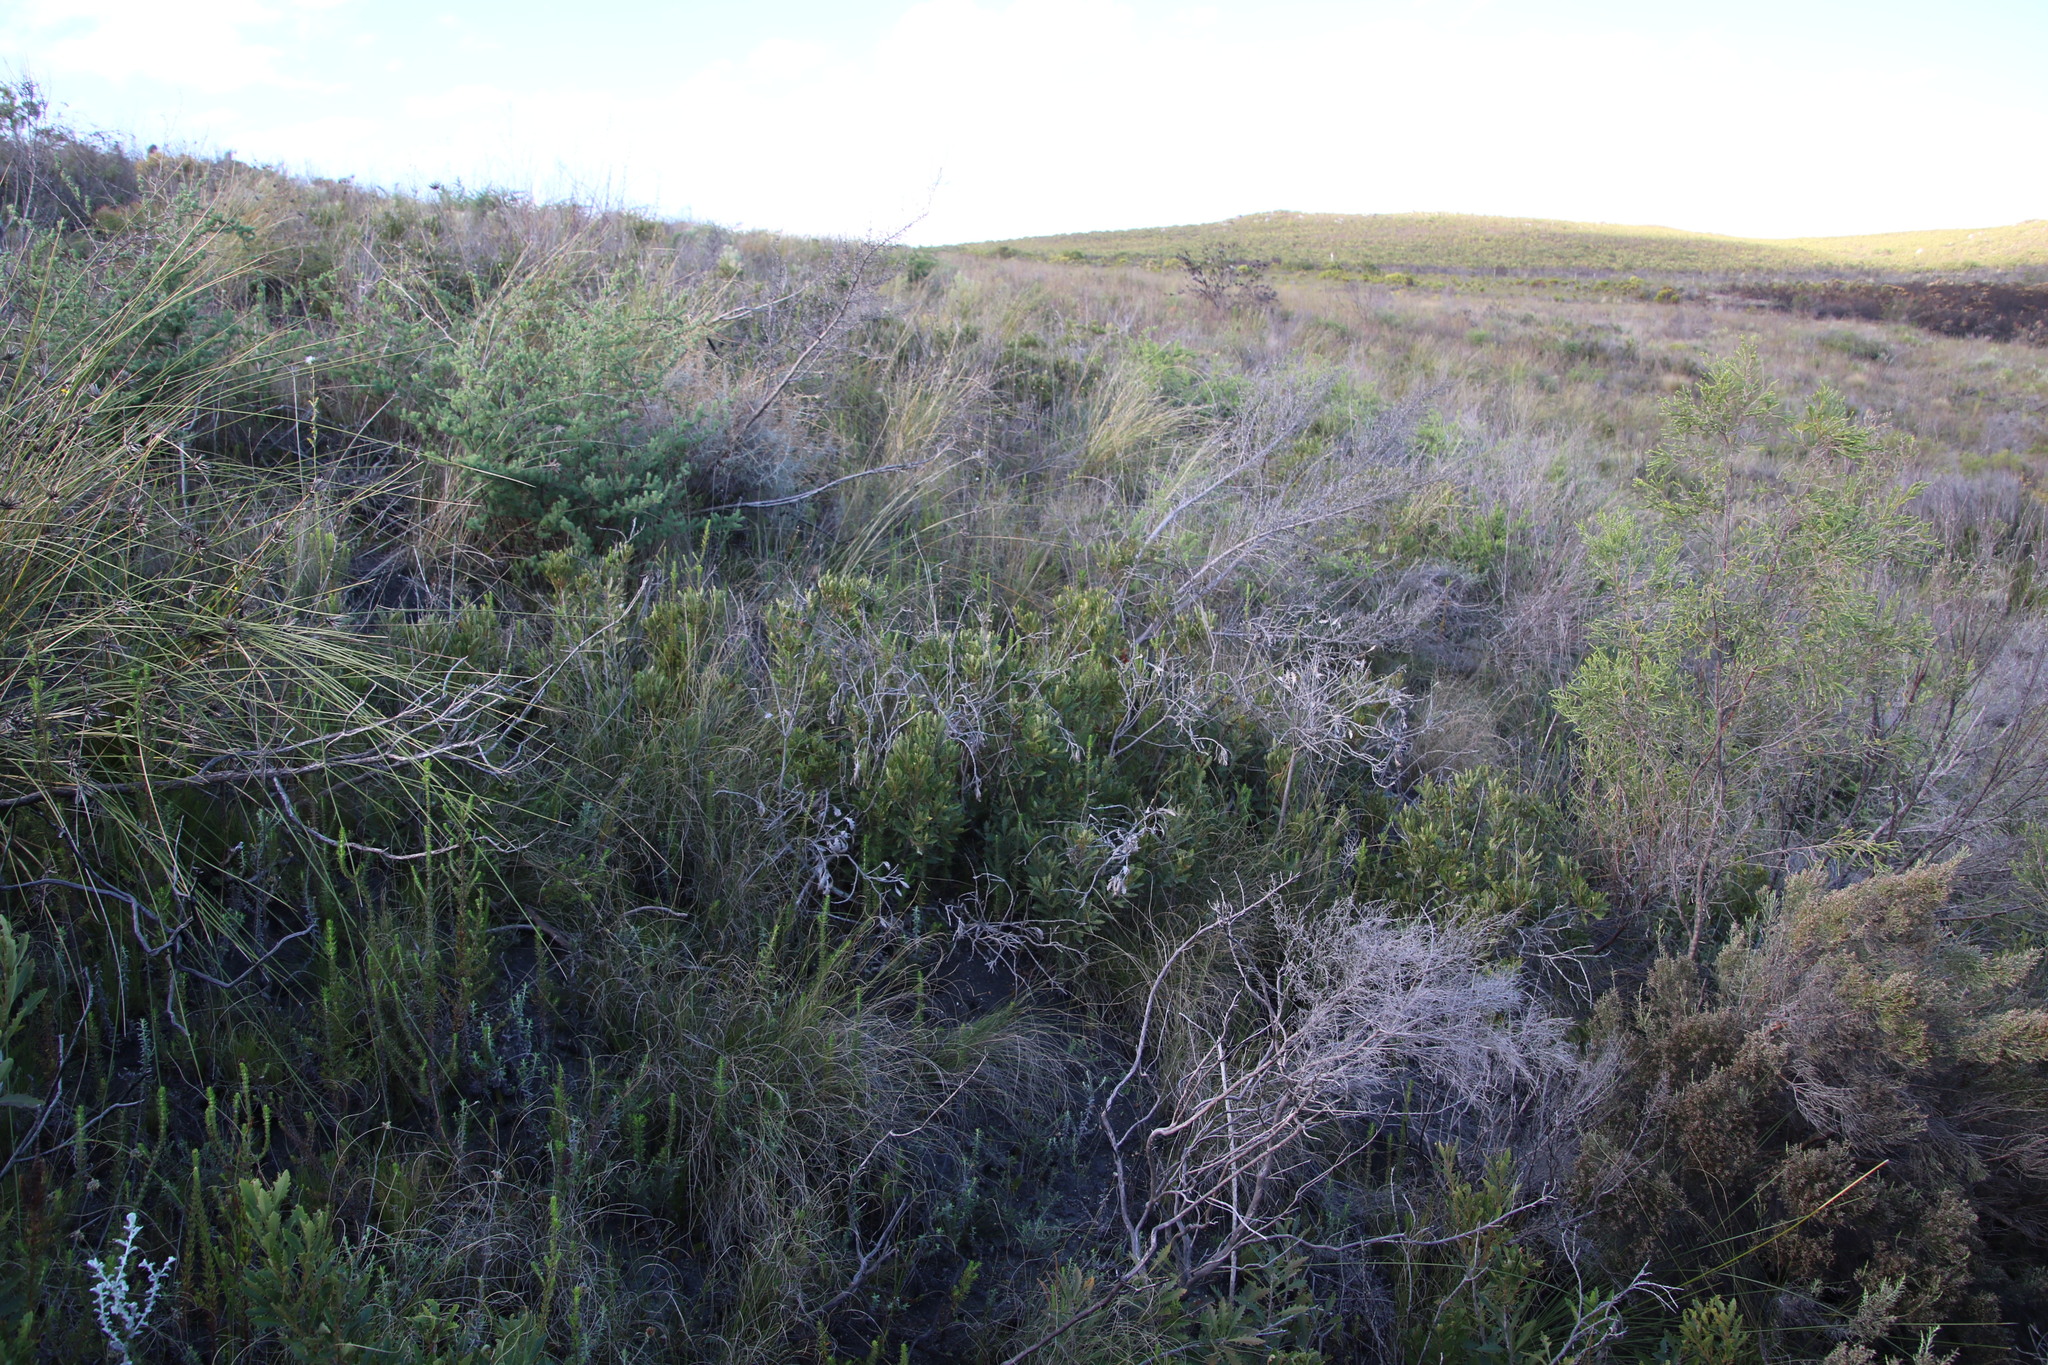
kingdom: Plantae
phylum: Tracheophyta
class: Magnoliopsida
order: Fagales
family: Myricaceae
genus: Morella
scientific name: Morella quercifolia
